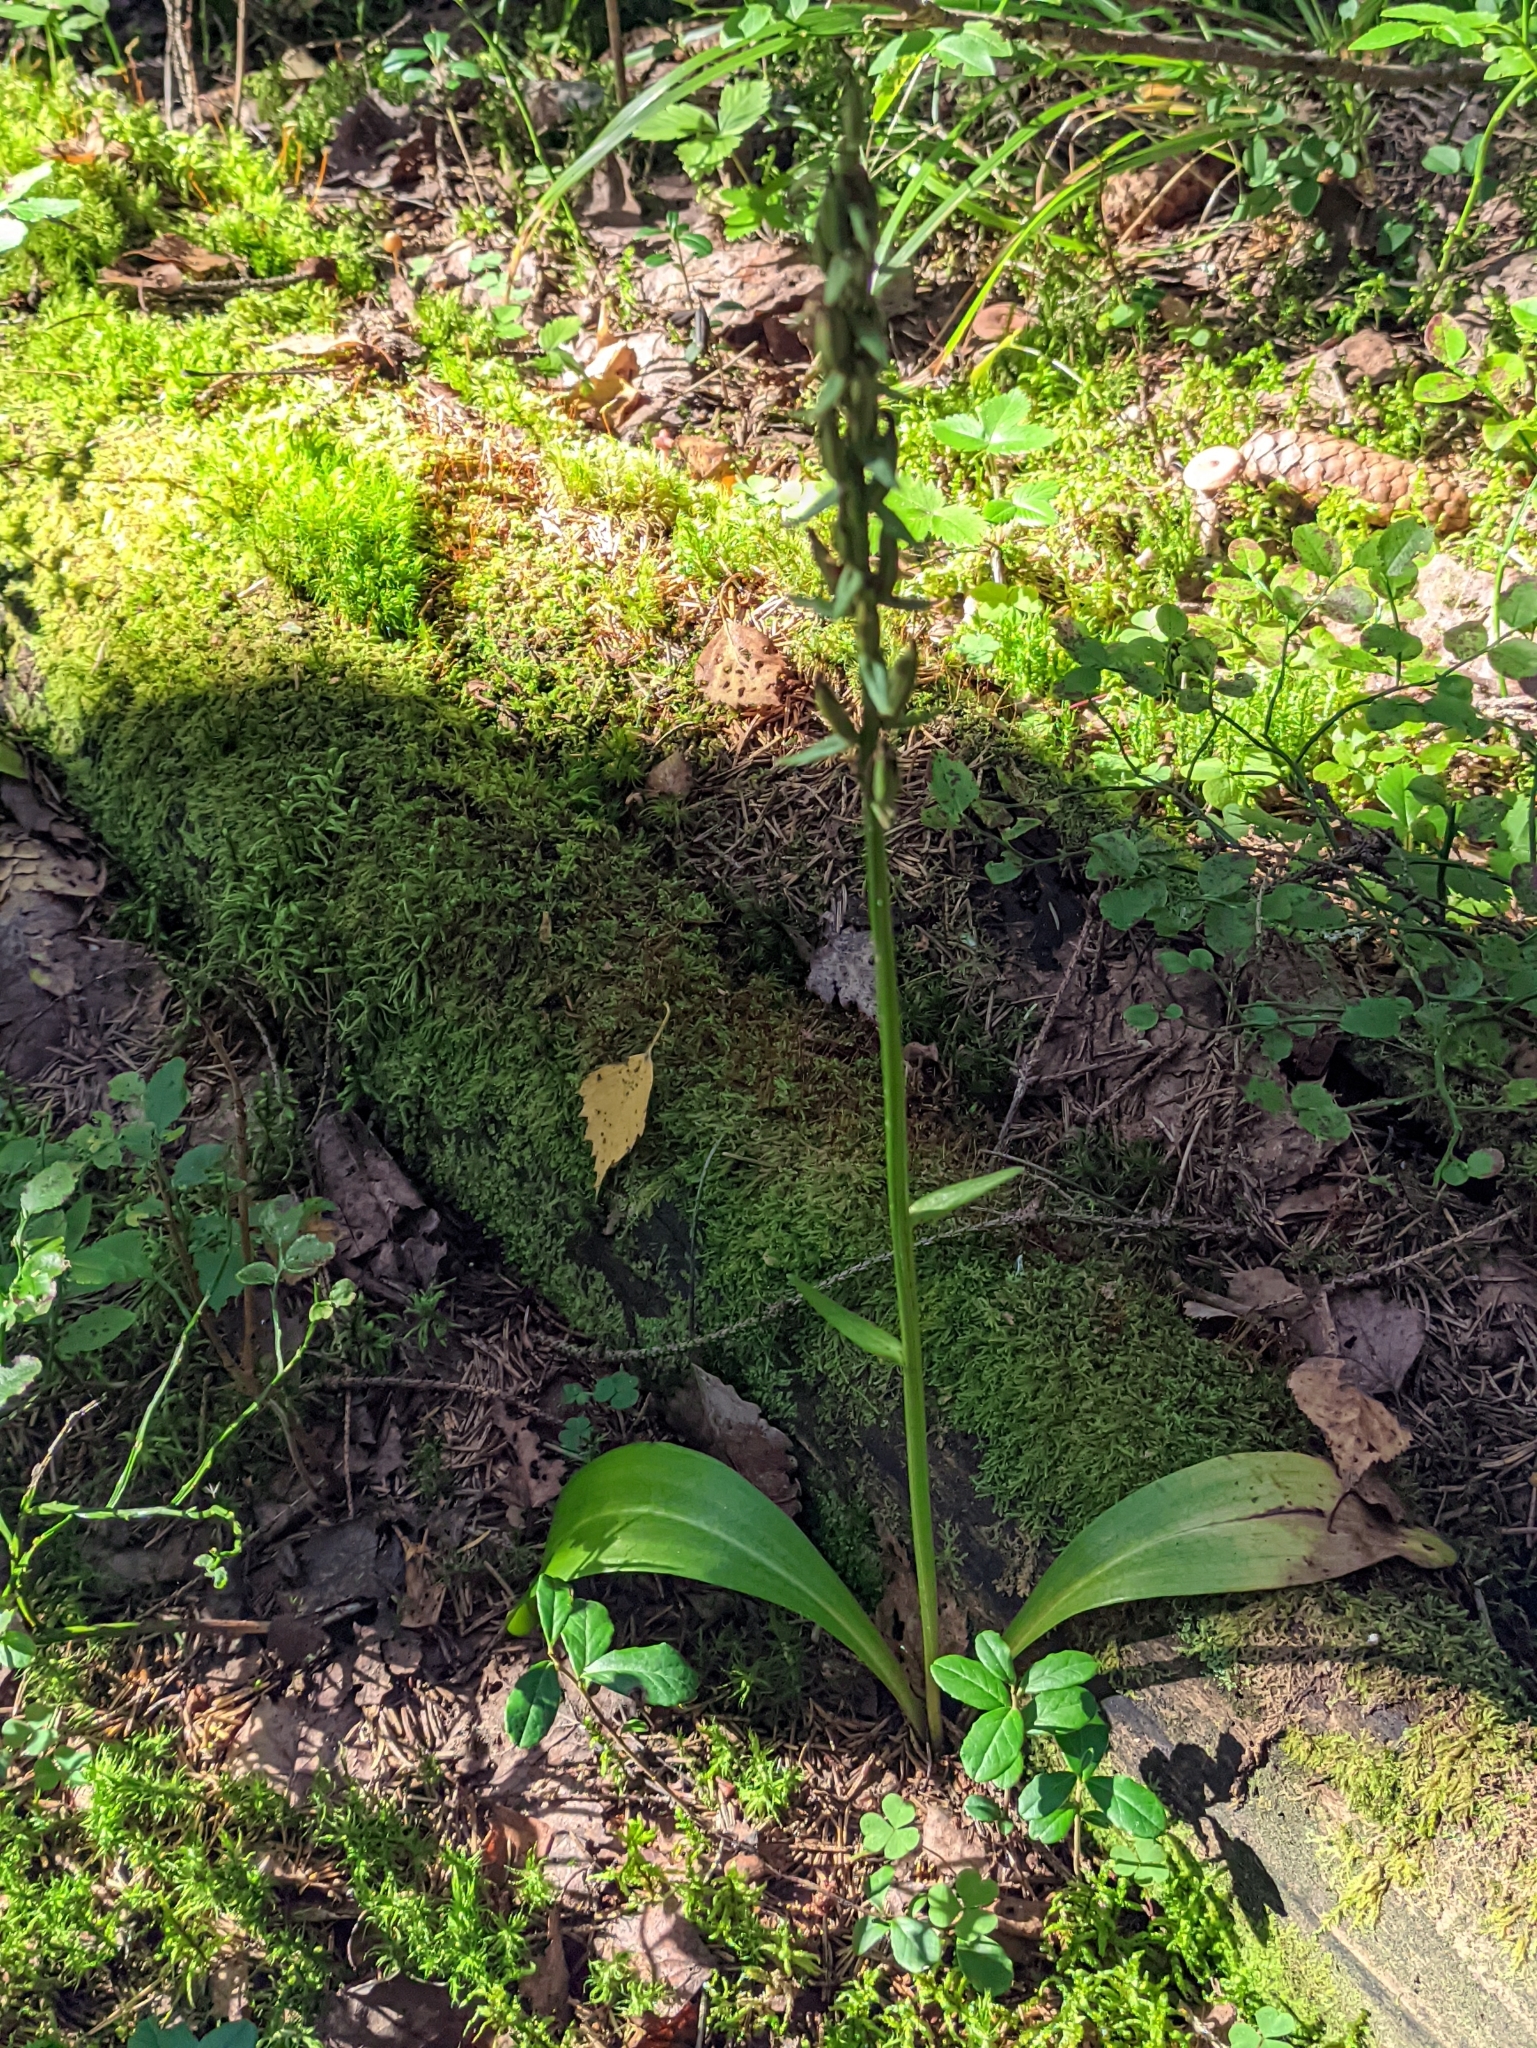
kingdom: Plantae
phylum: Tracheophyta
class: Liliopsida
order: Asparagales
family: Orchidaceae
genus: Platanthera
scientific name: Platanthera bifolia
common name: Lesser butterfly-orchid
